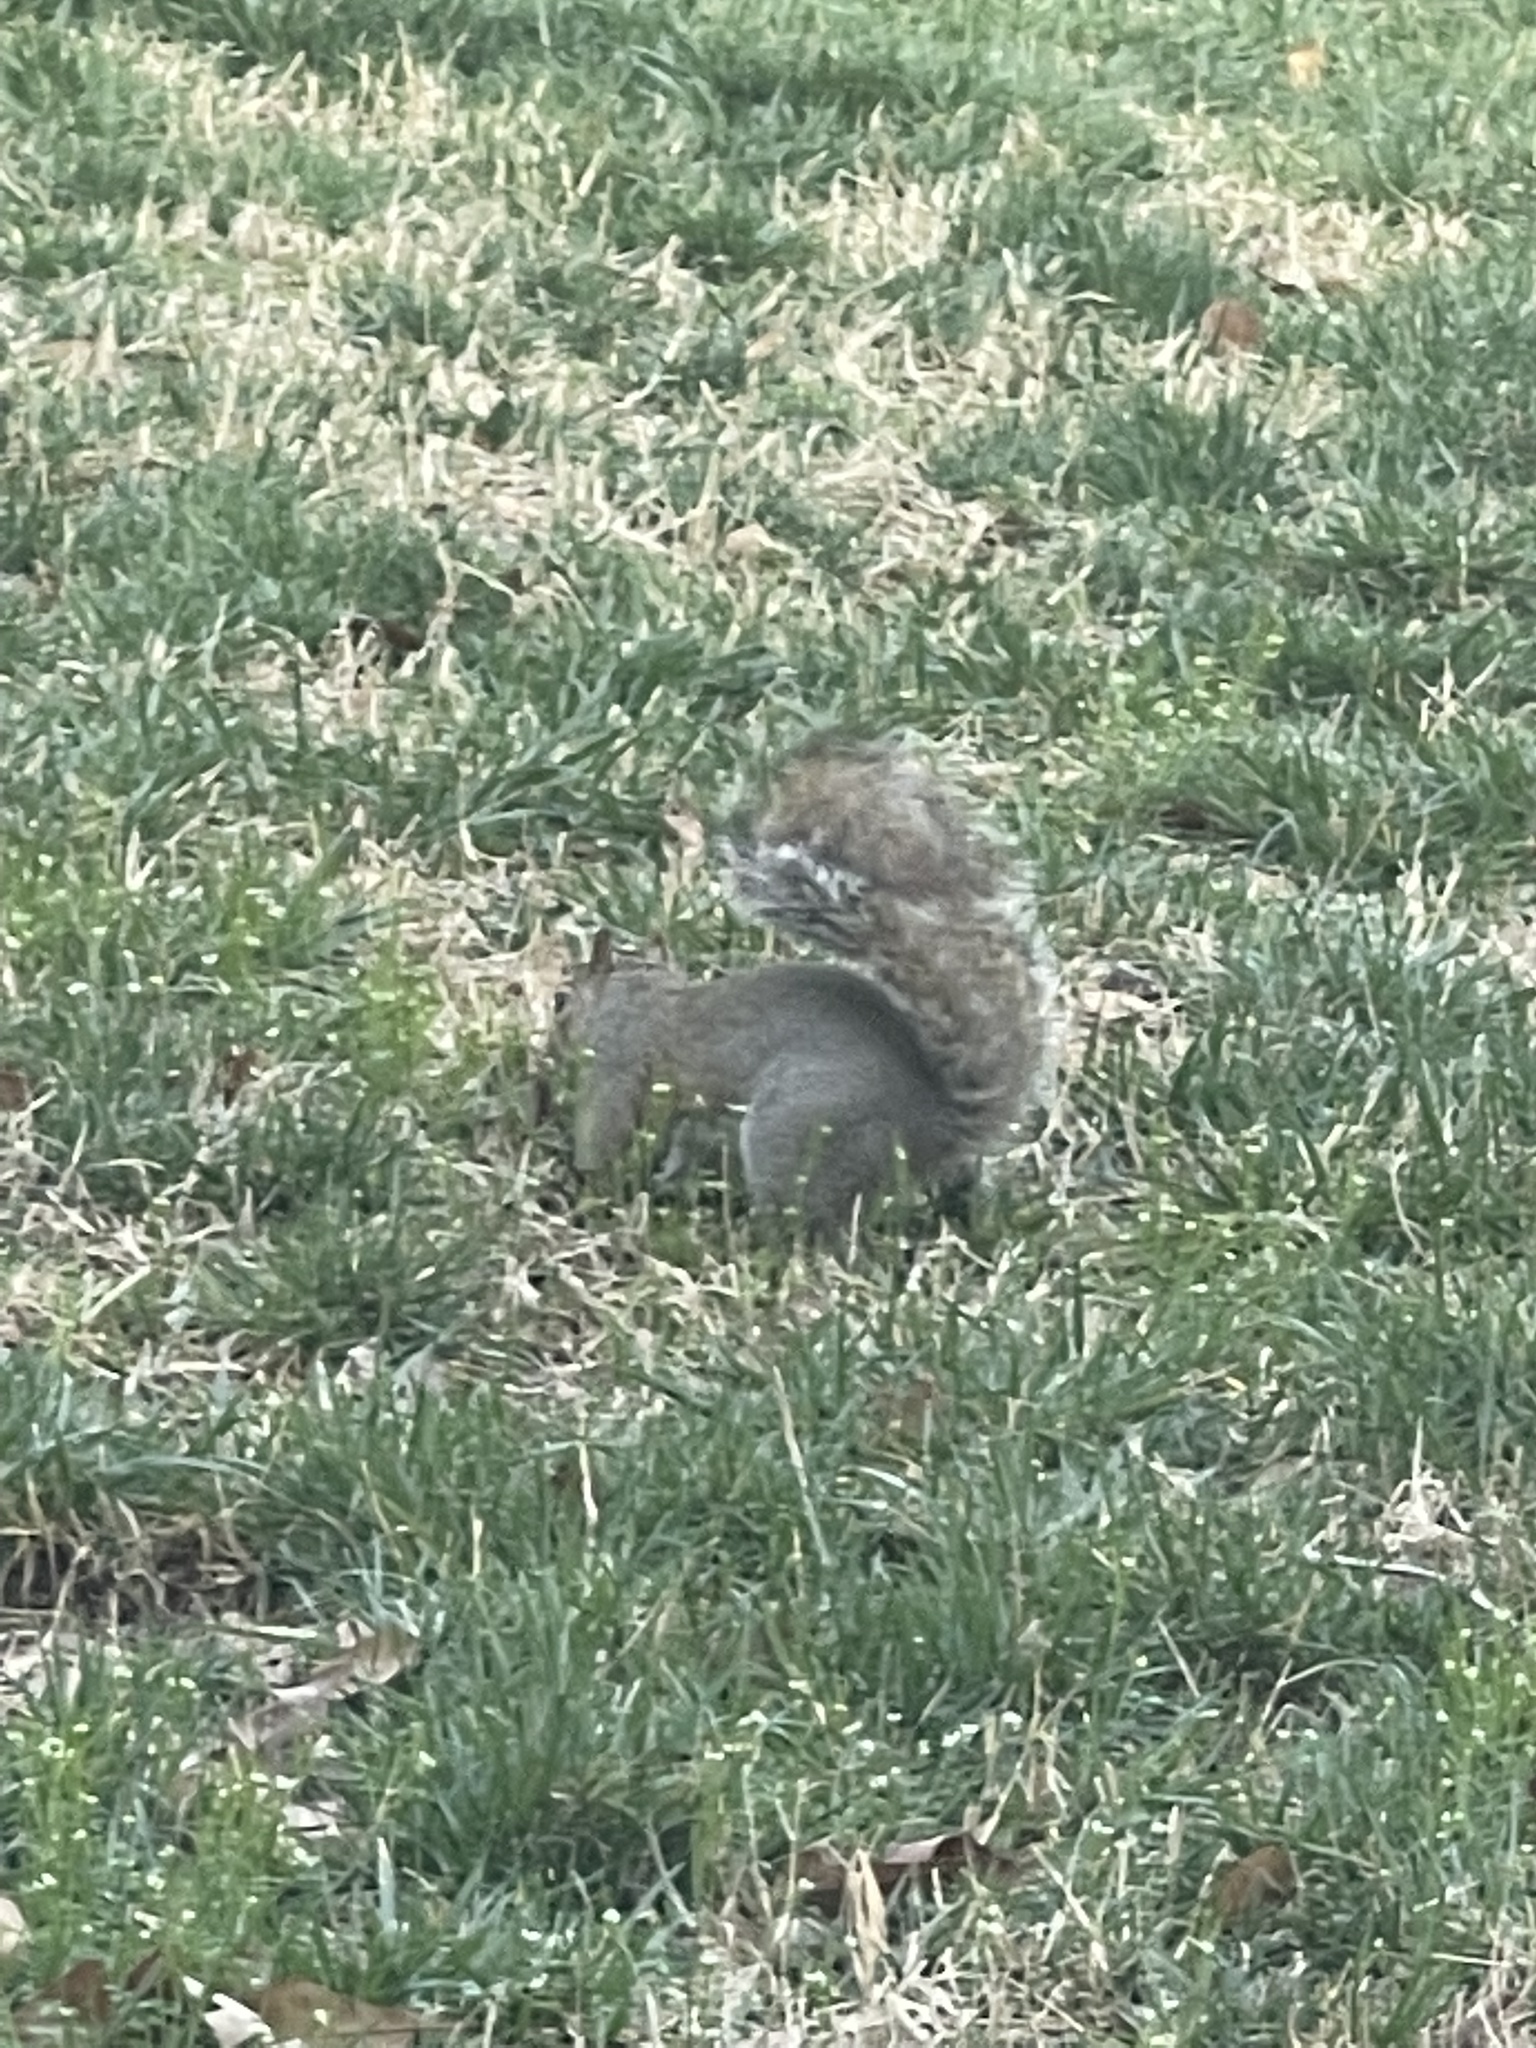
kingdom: Animalia
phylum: Chordata
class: Mammalia
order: Rodentia
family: Sciuridae
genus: Sciurus
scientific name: Sciurus carolinensis
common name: Eastern gray squirrel
